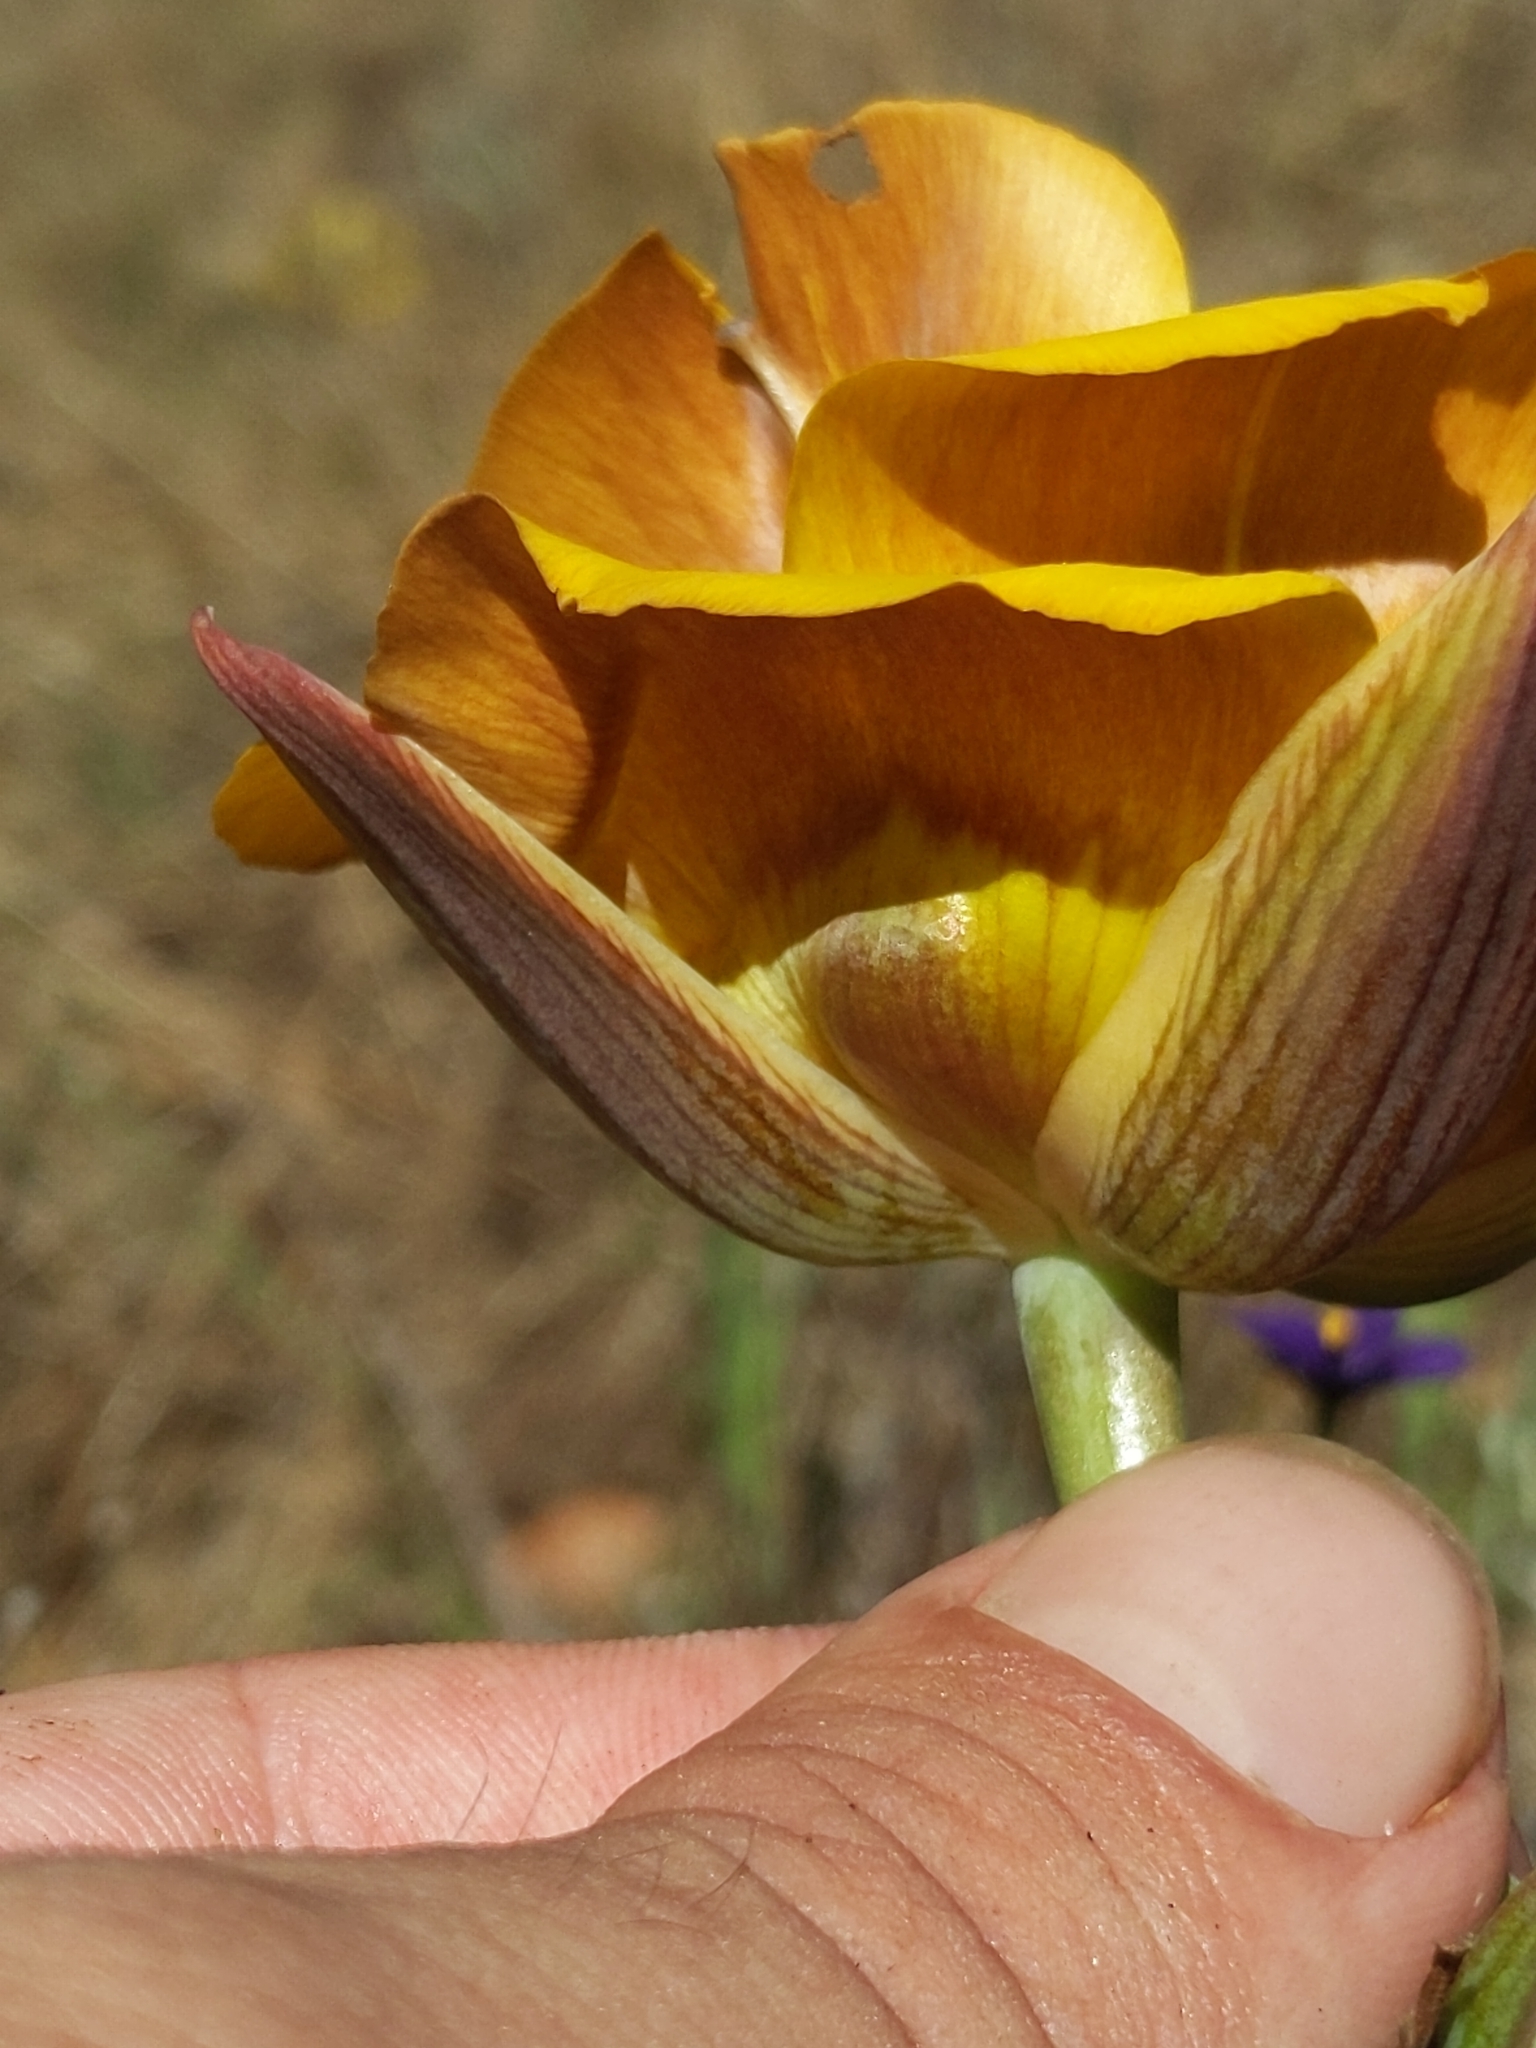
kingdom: Plantae
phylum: Tracheophyta
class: Liliopsida
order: Liliales
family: Liliaceae
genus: Calochortus
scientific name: Calochortus clavatus
